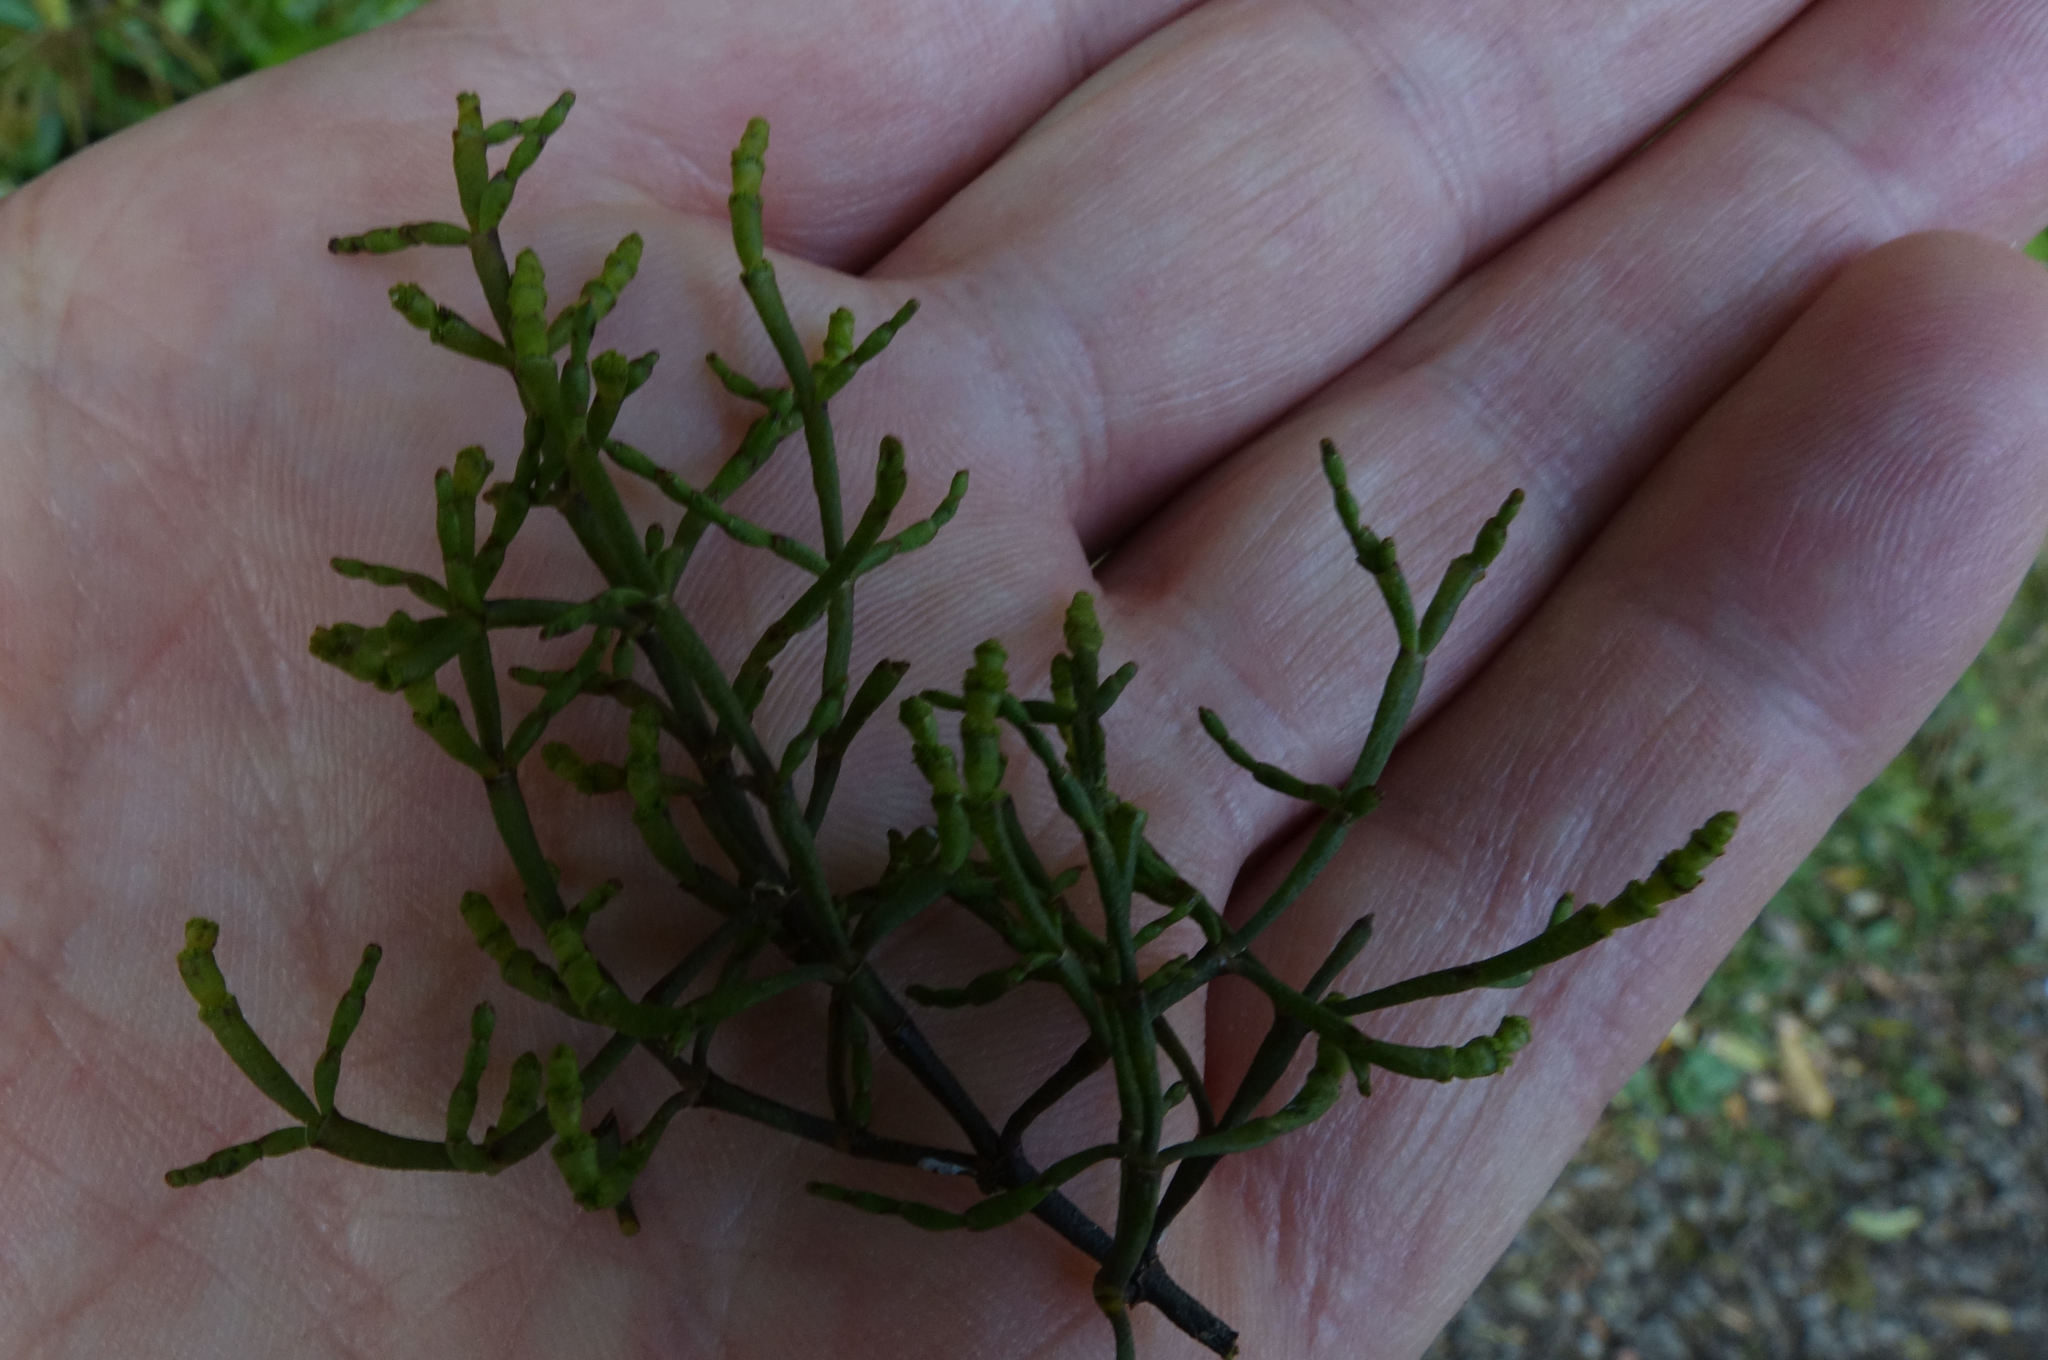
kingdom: Plantae
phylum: Tracheophyta
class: Magnoliopsida
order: Santalales
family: Viscaceae
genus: Korthalsella
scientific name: Korthalsella salicornioides
